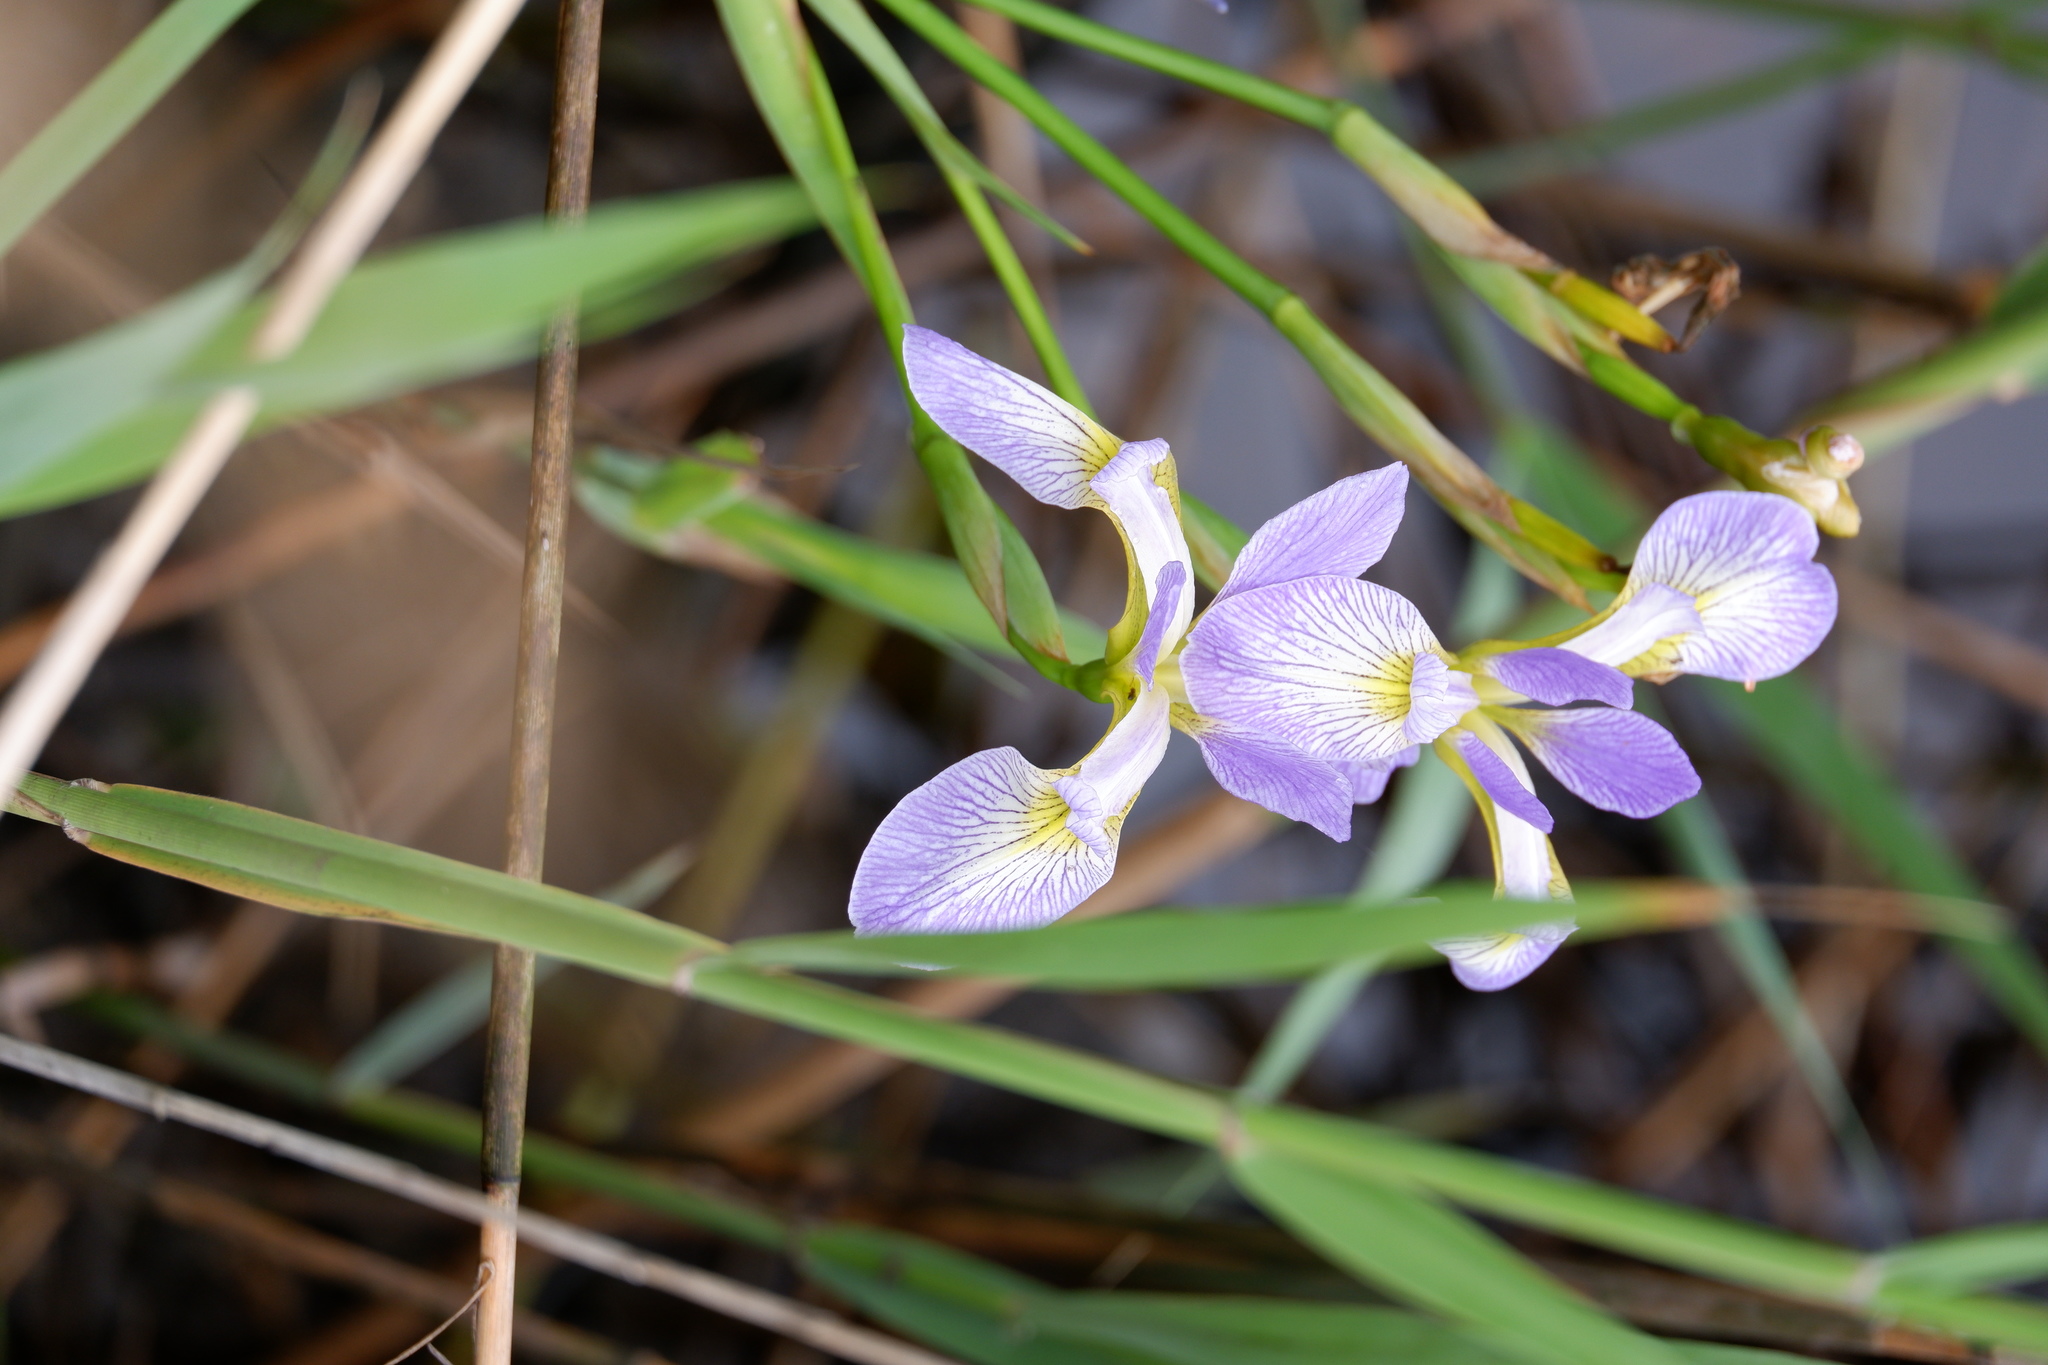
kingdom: Plantae
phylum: Tracheophyta
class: Liliopsida
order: Asparagales
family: Iridaceae
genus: Iris
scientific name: Iris versicolor
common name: Purple iris
